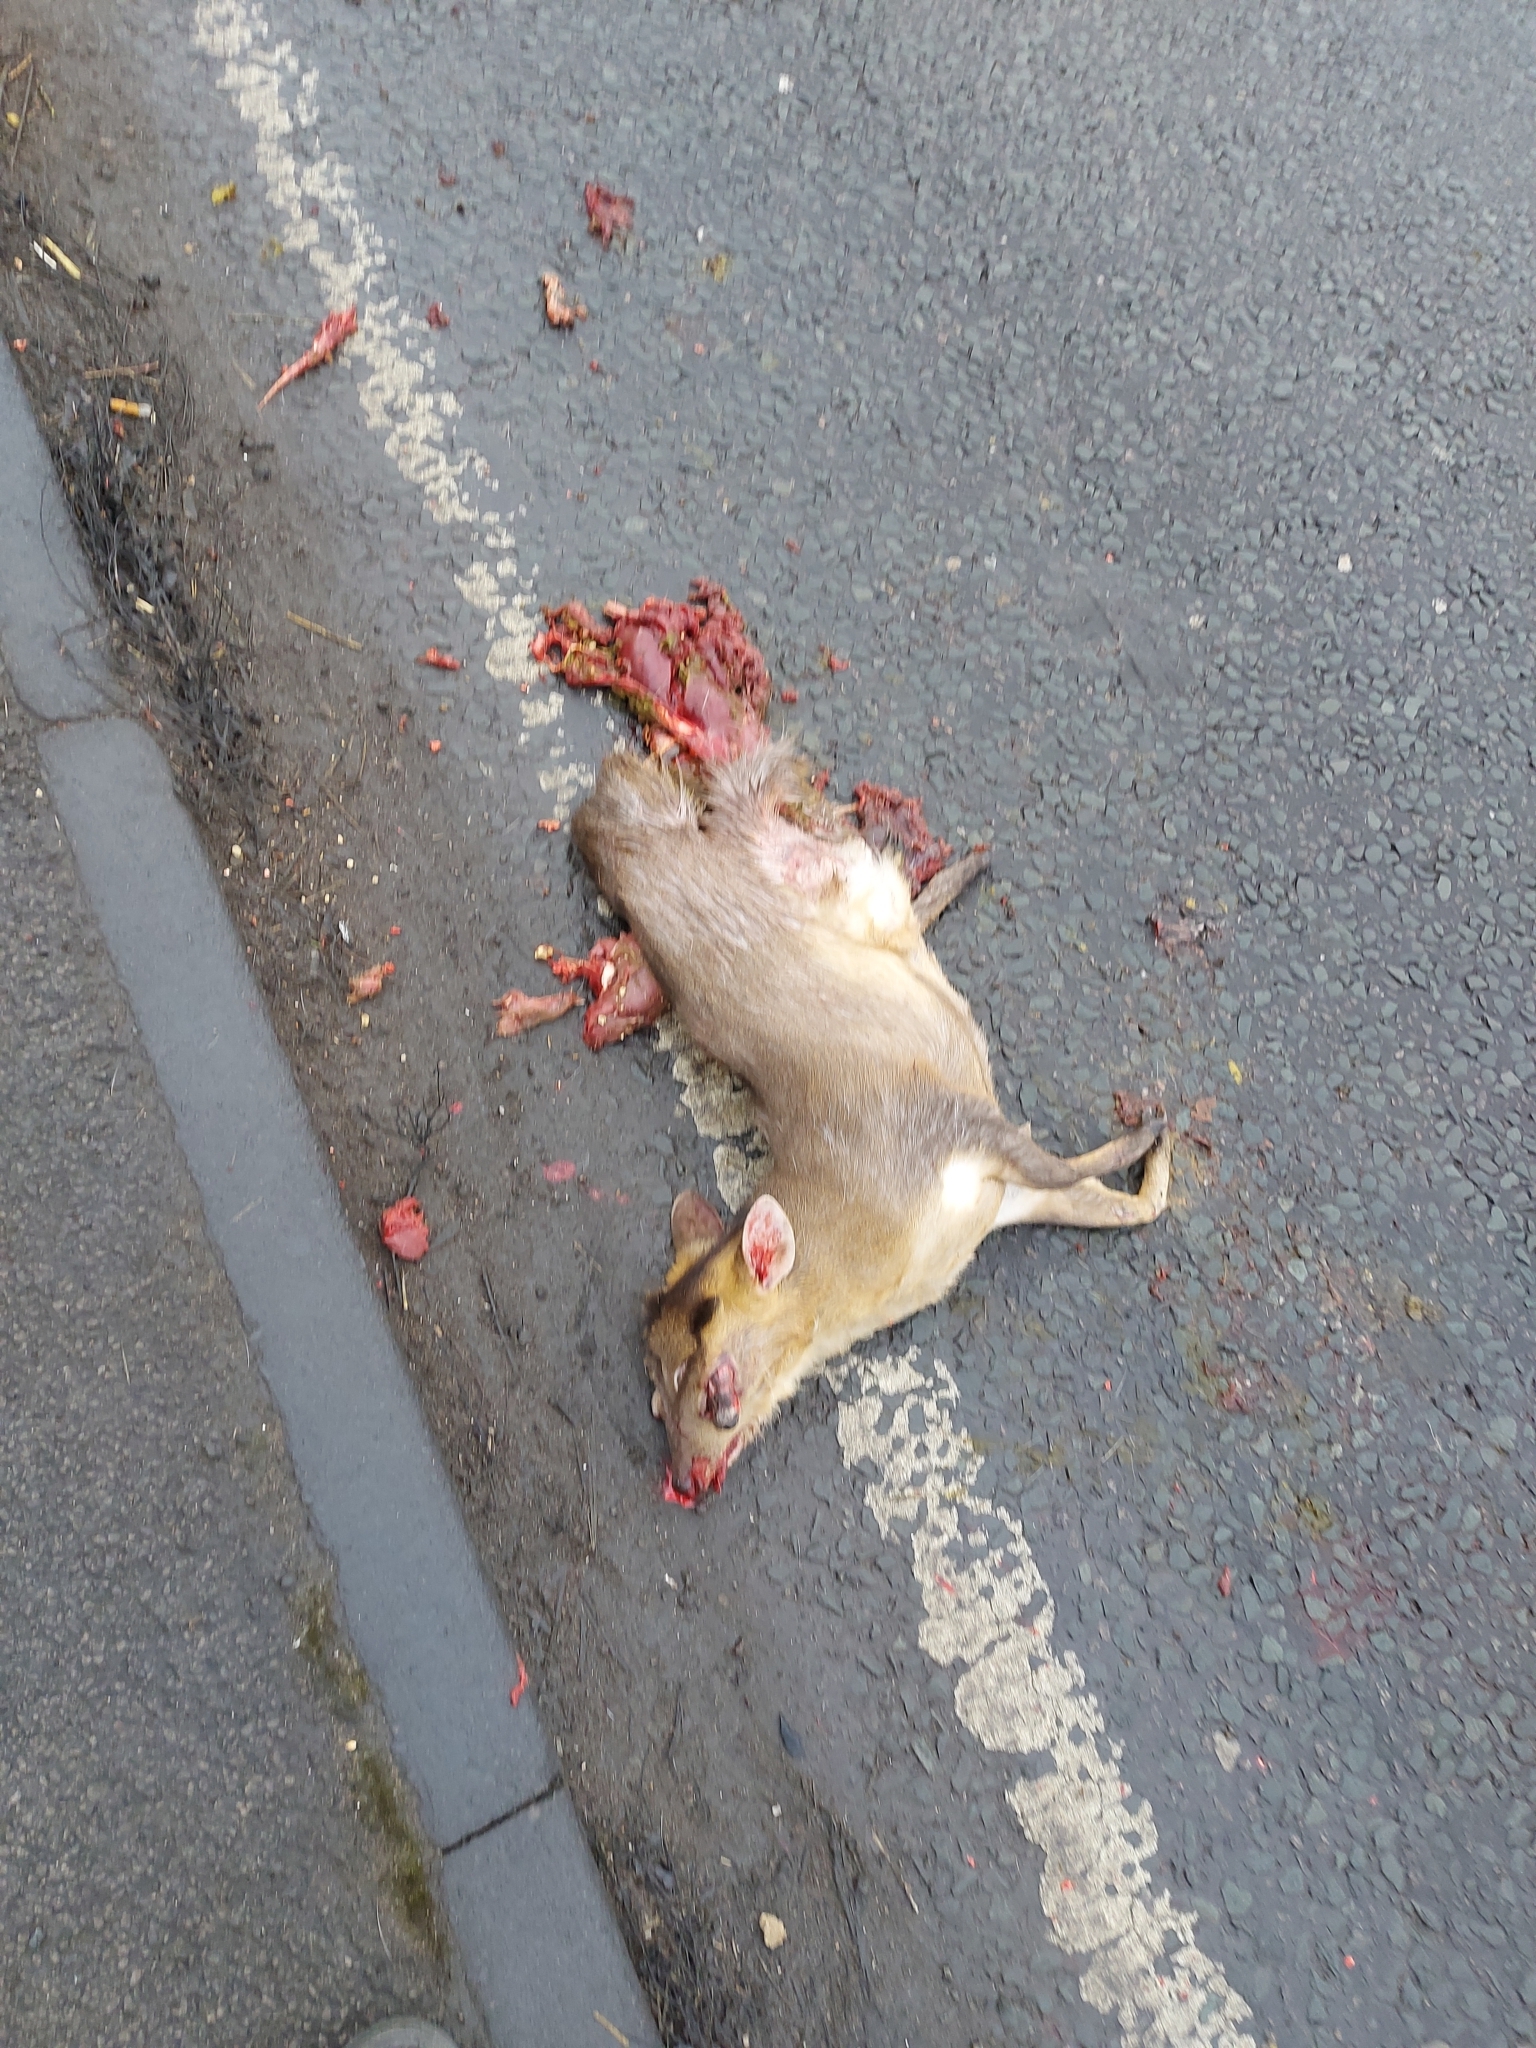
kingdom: Animalia
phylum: Chordata
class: Mammalia
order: Artiodactyla
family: Cervidae
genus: Muntiacus
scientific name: Muntiacus reevesi
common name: Reeves' muntjac
